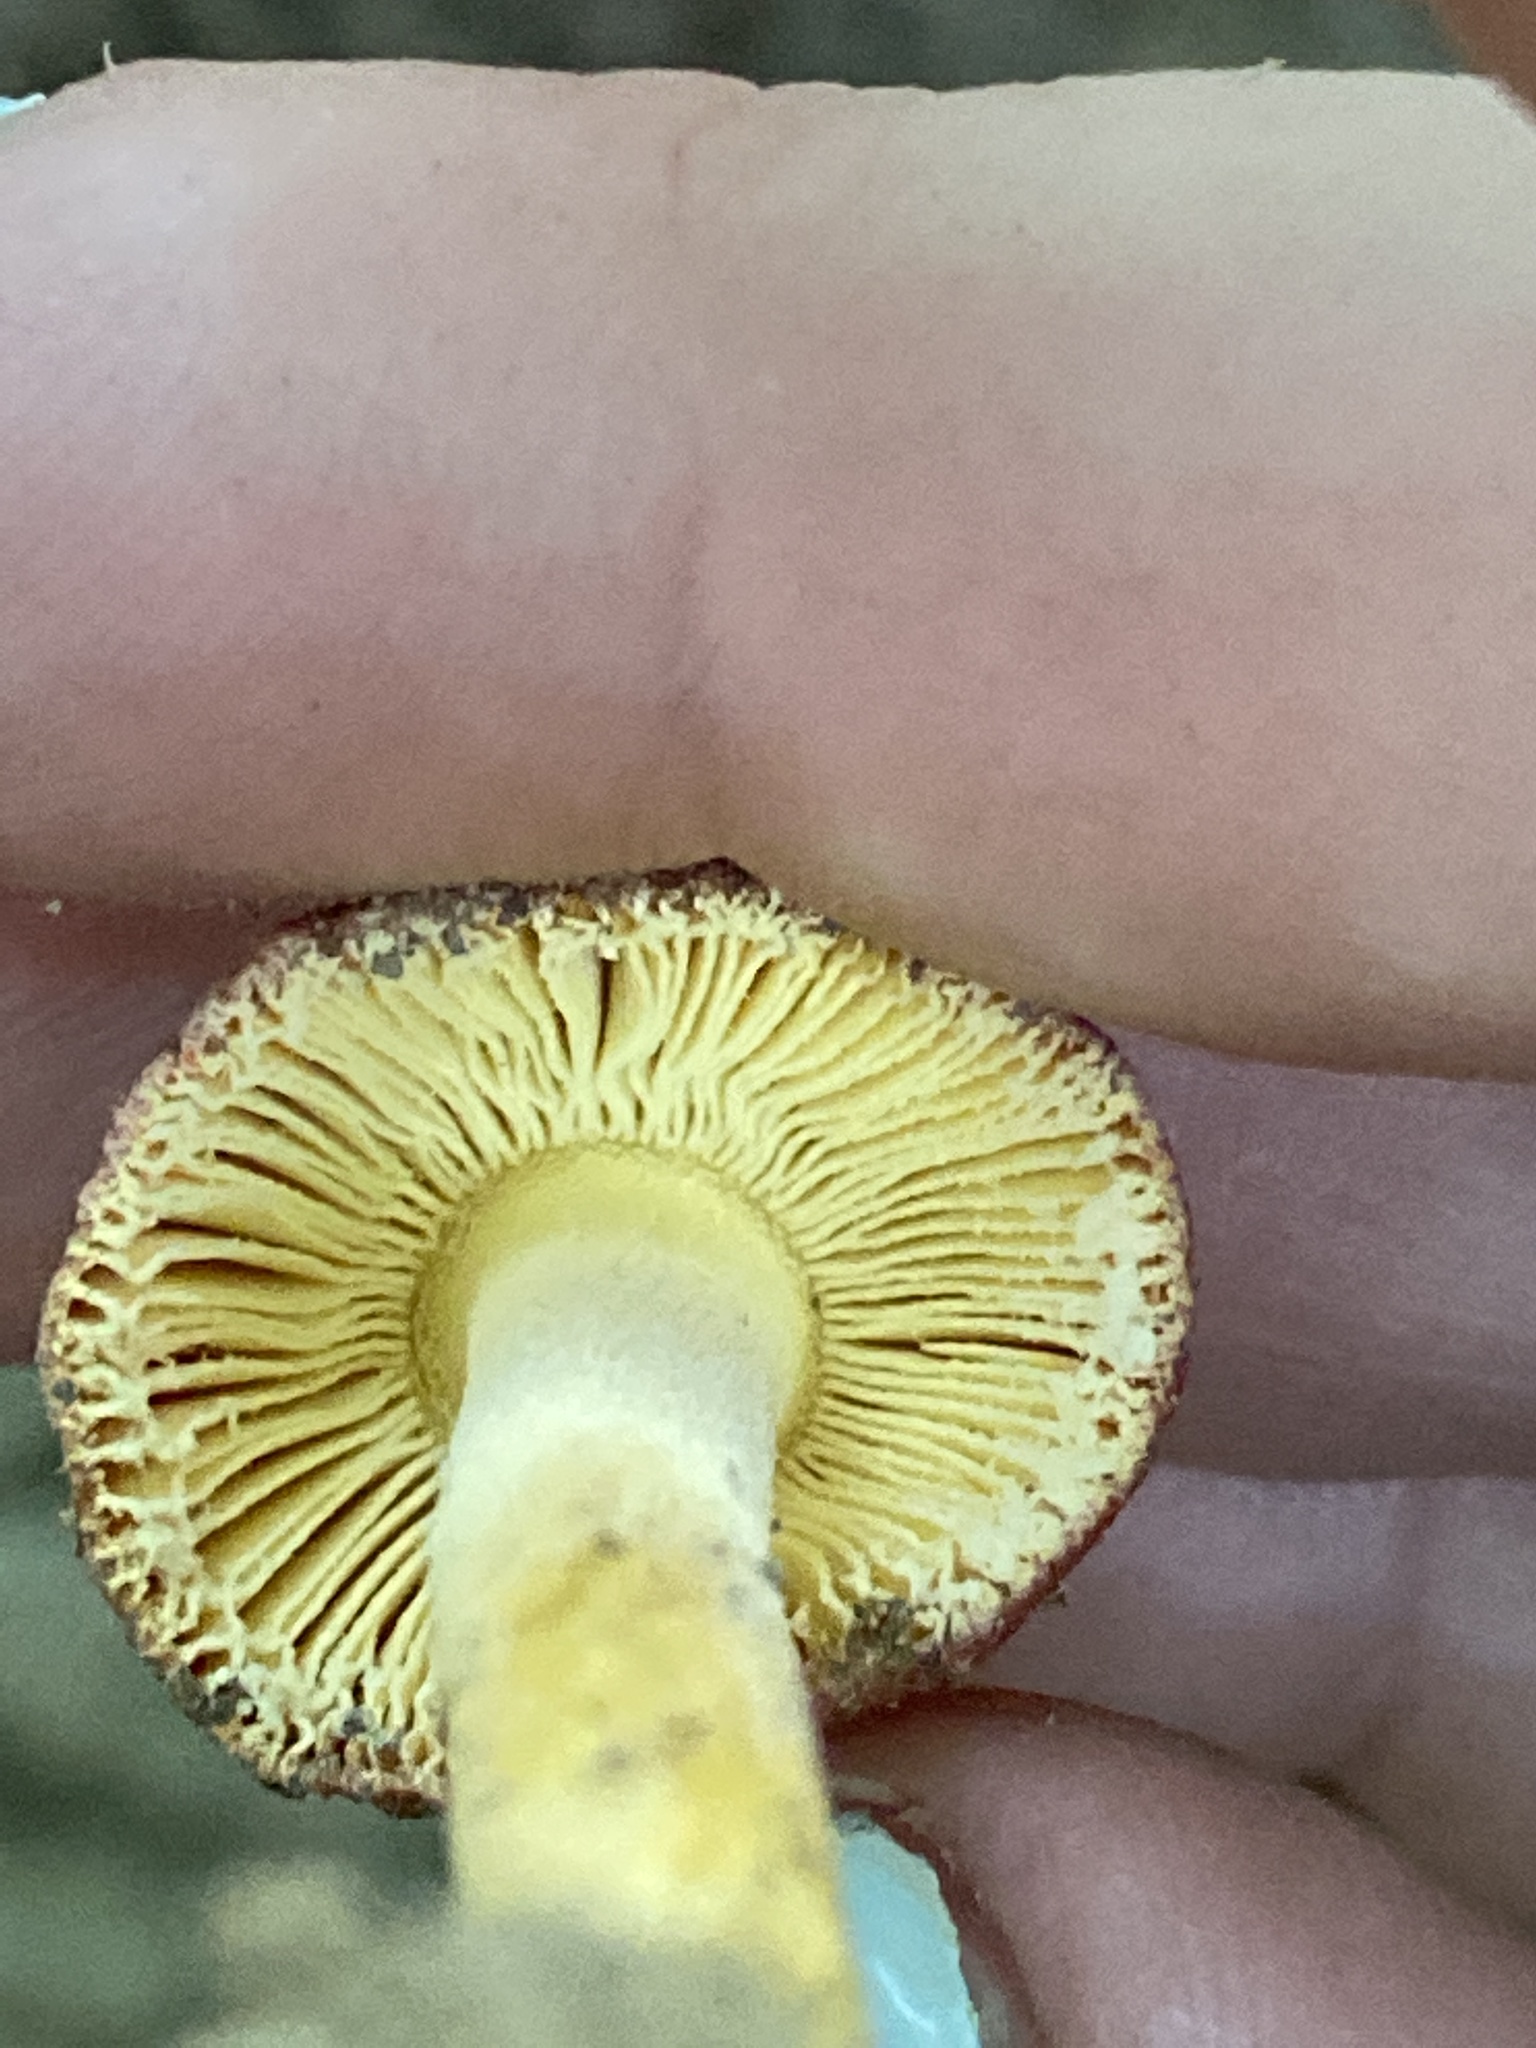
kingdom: Fungi
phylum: Basidiomycota
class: Agaricomycetes
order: Agaricales
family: Amanitaceae
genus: Amanita
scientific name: Amanita parcivolvata
